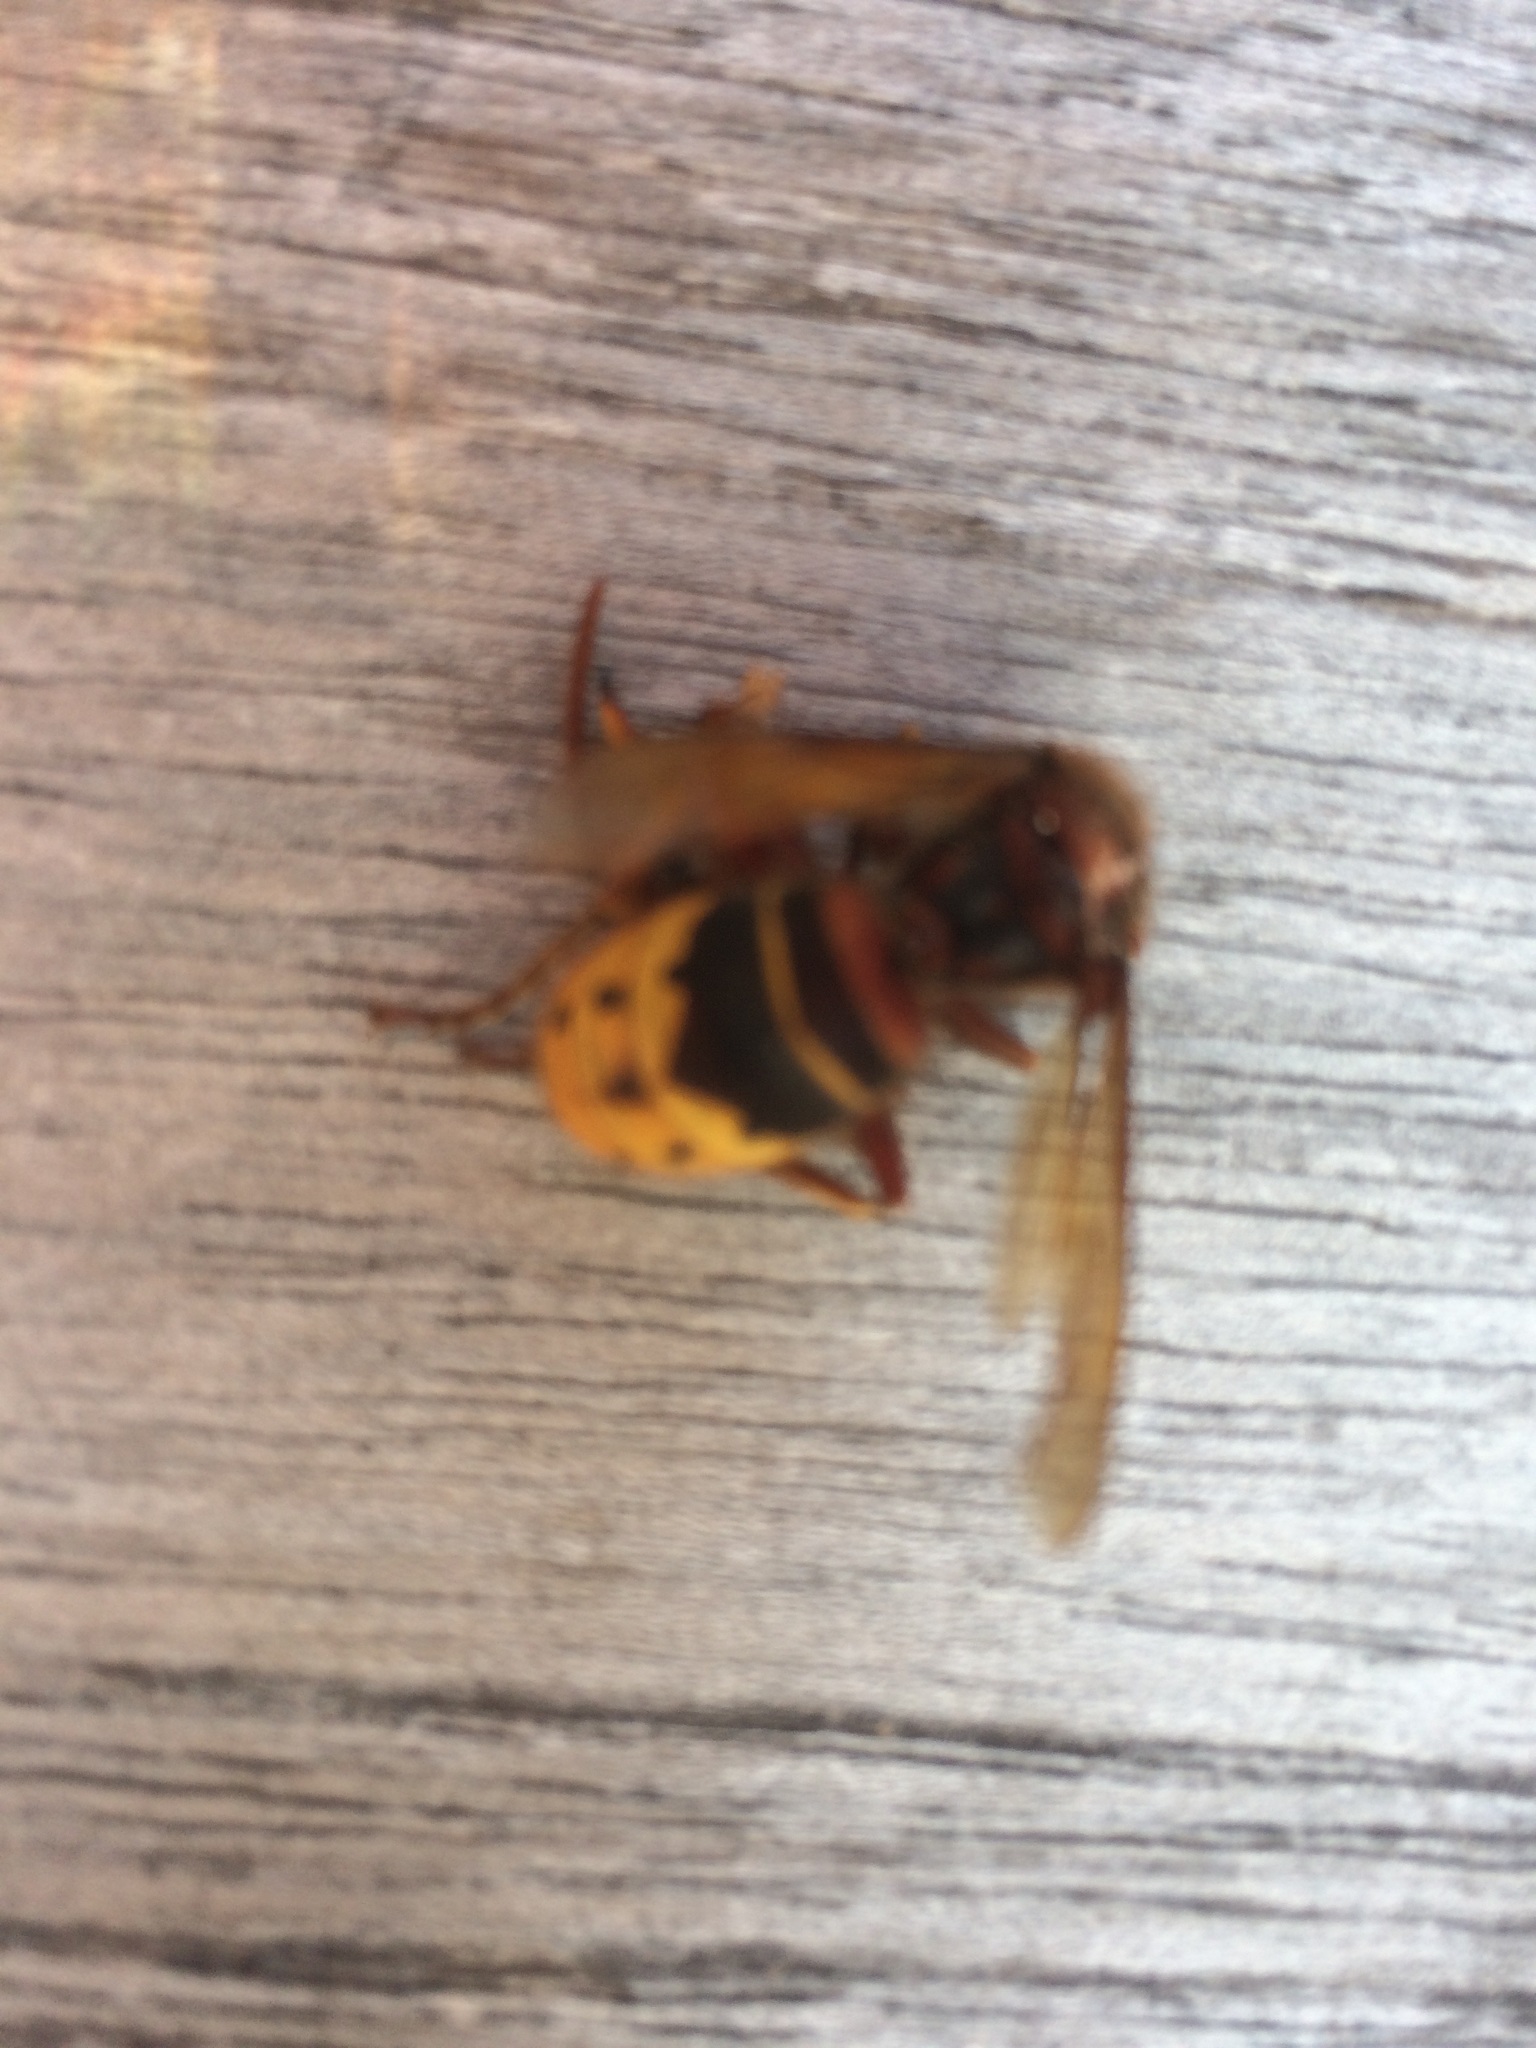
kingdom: Animalia
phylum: Arthropoda
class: Insecta
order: Hymenoptera
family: Vespidae
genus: Vespa
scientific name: Vespa crabro
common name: Hornet
